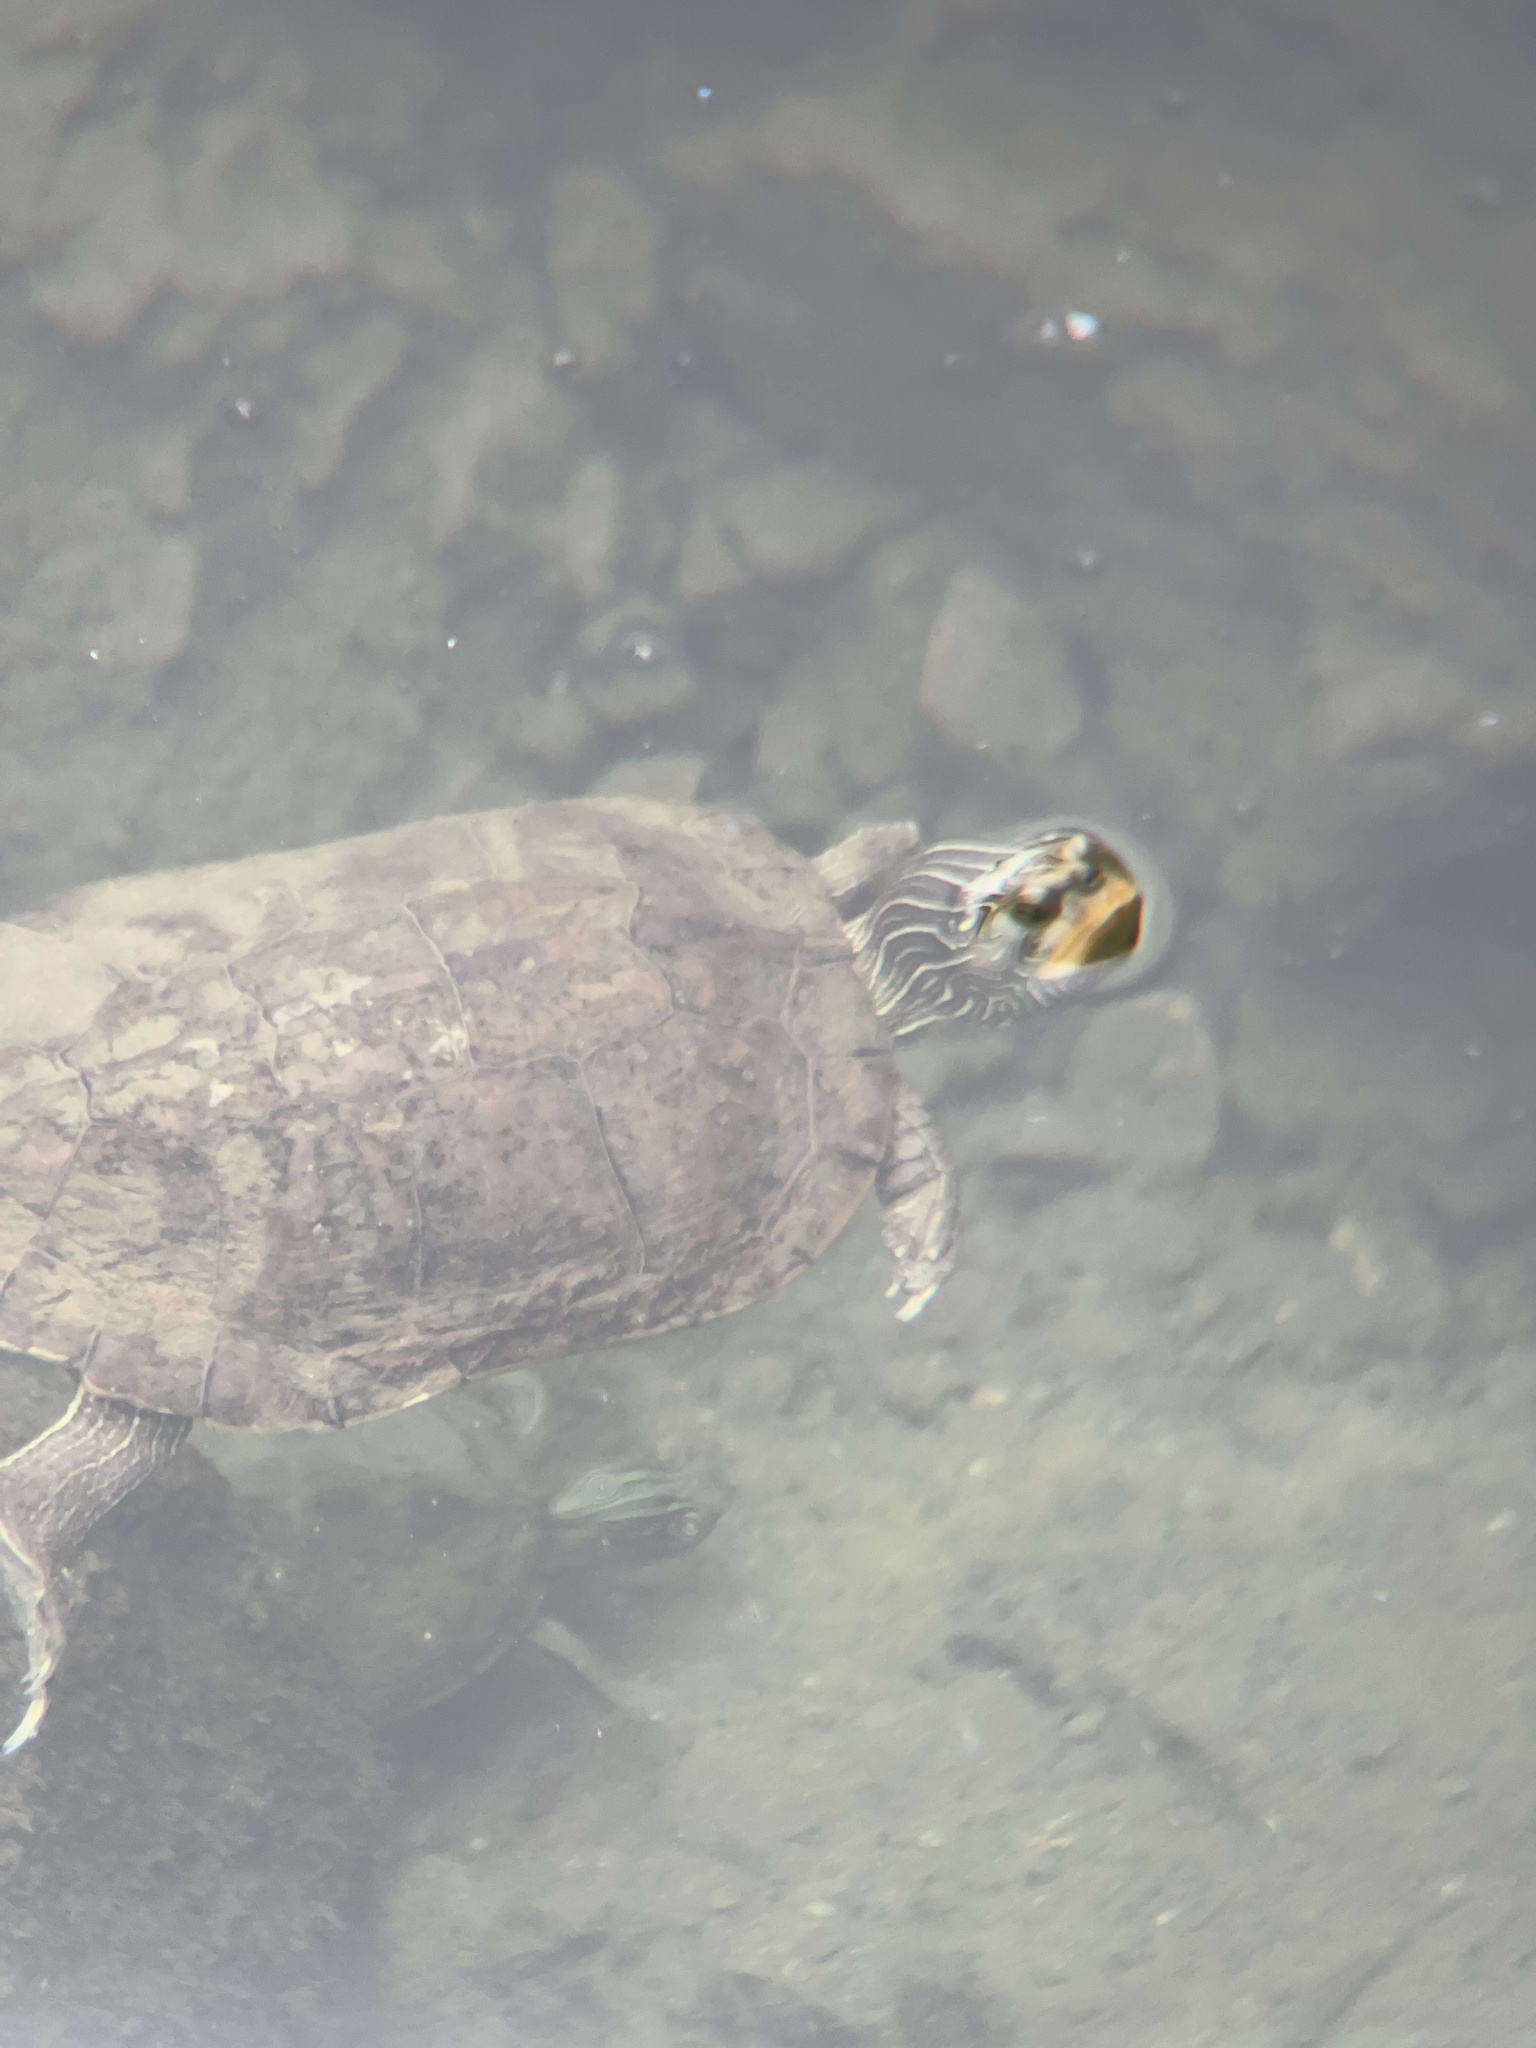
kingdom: Animalia
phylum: Chordata
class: Testudines
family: Emydidae
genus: Graptemys
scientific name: Graptemys geographica
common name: Common map turtle
